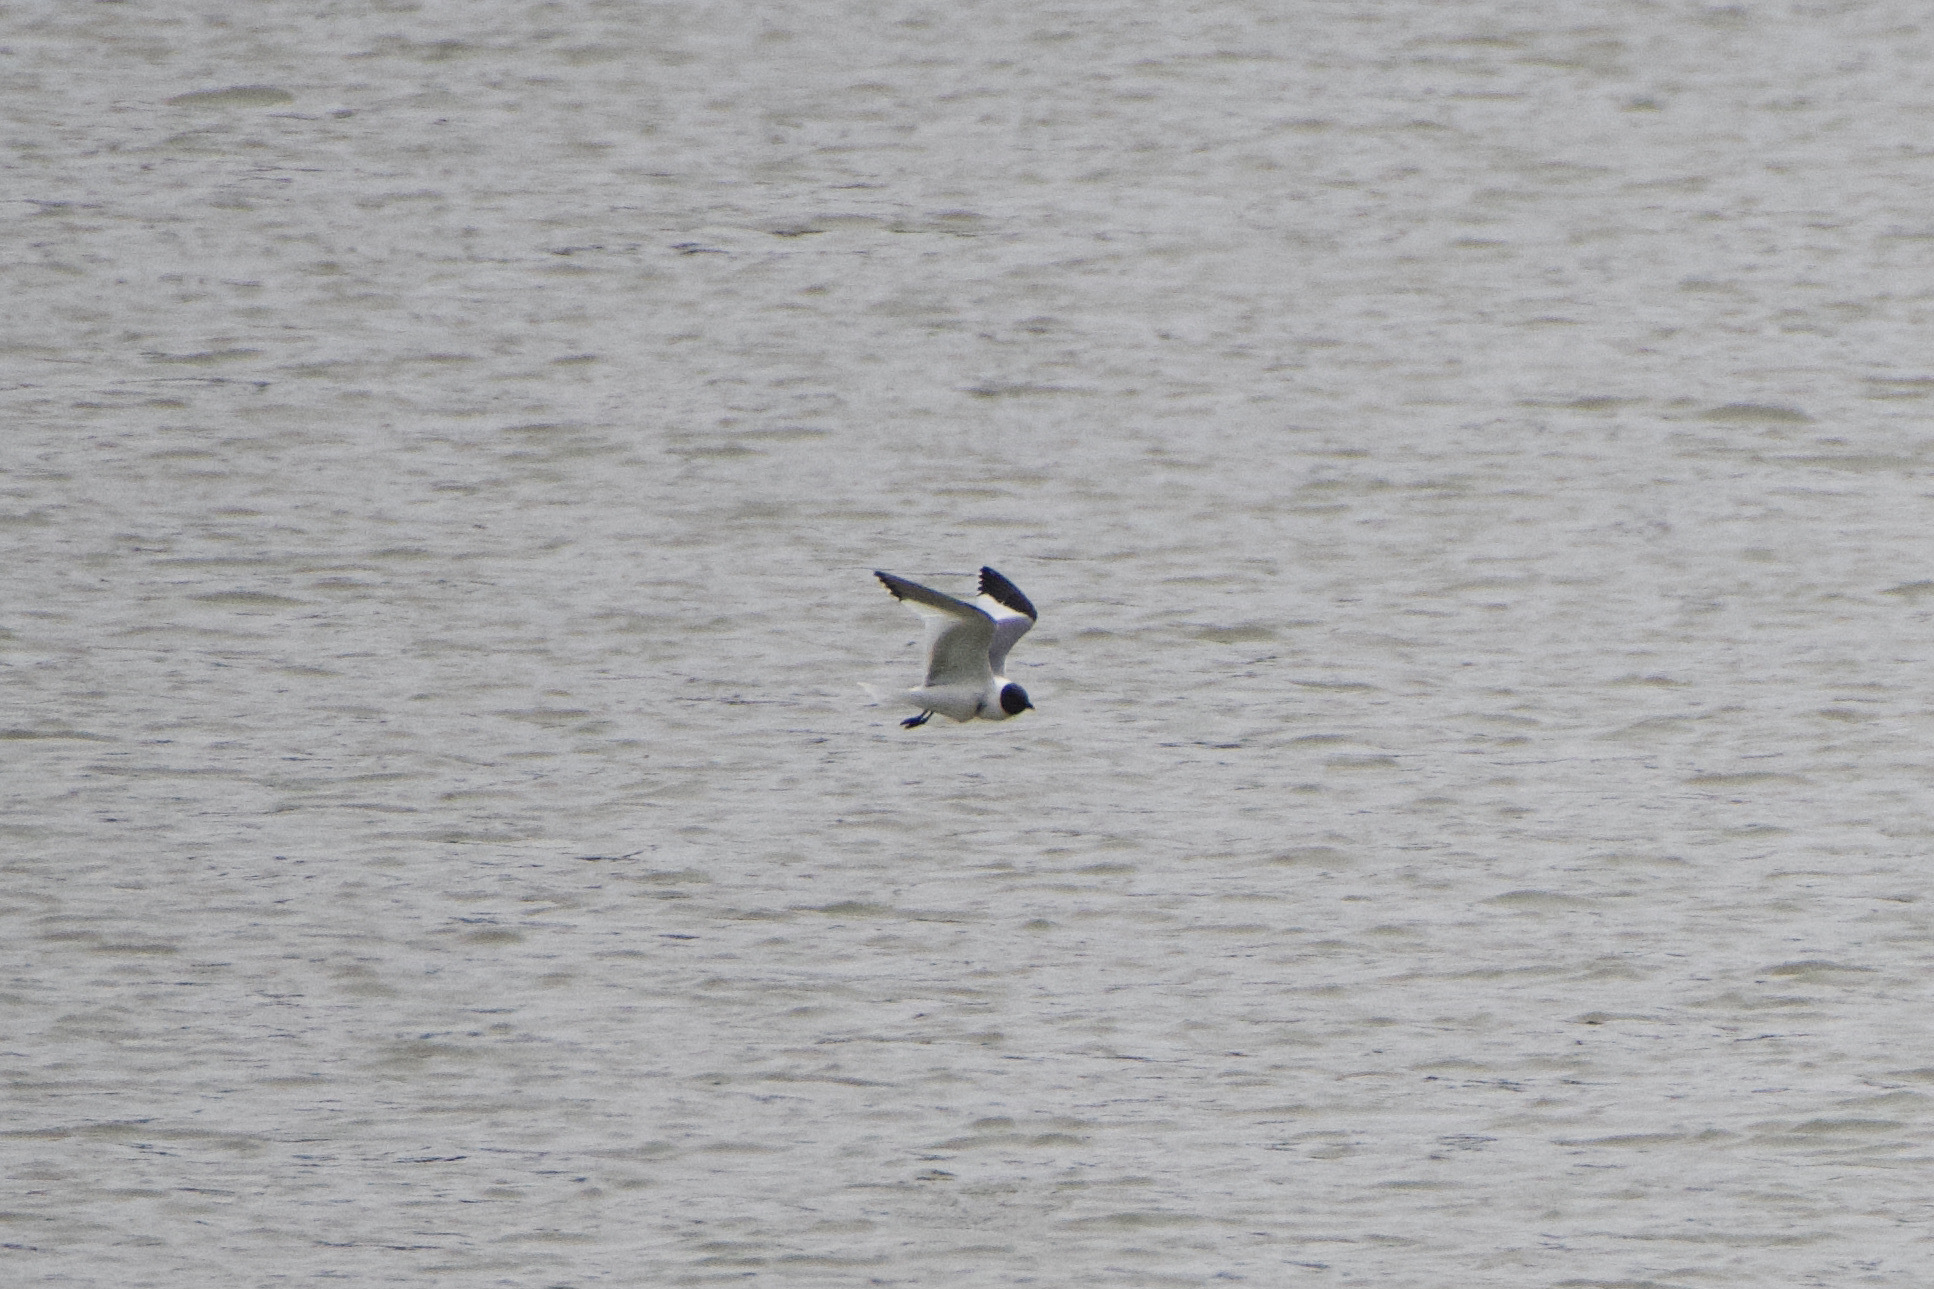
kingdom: Animalia
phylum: Chordata
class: Aves
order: Charadriiformes
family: Laridae
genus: Xema
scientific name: Xema sabini
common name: Sabine's gull
